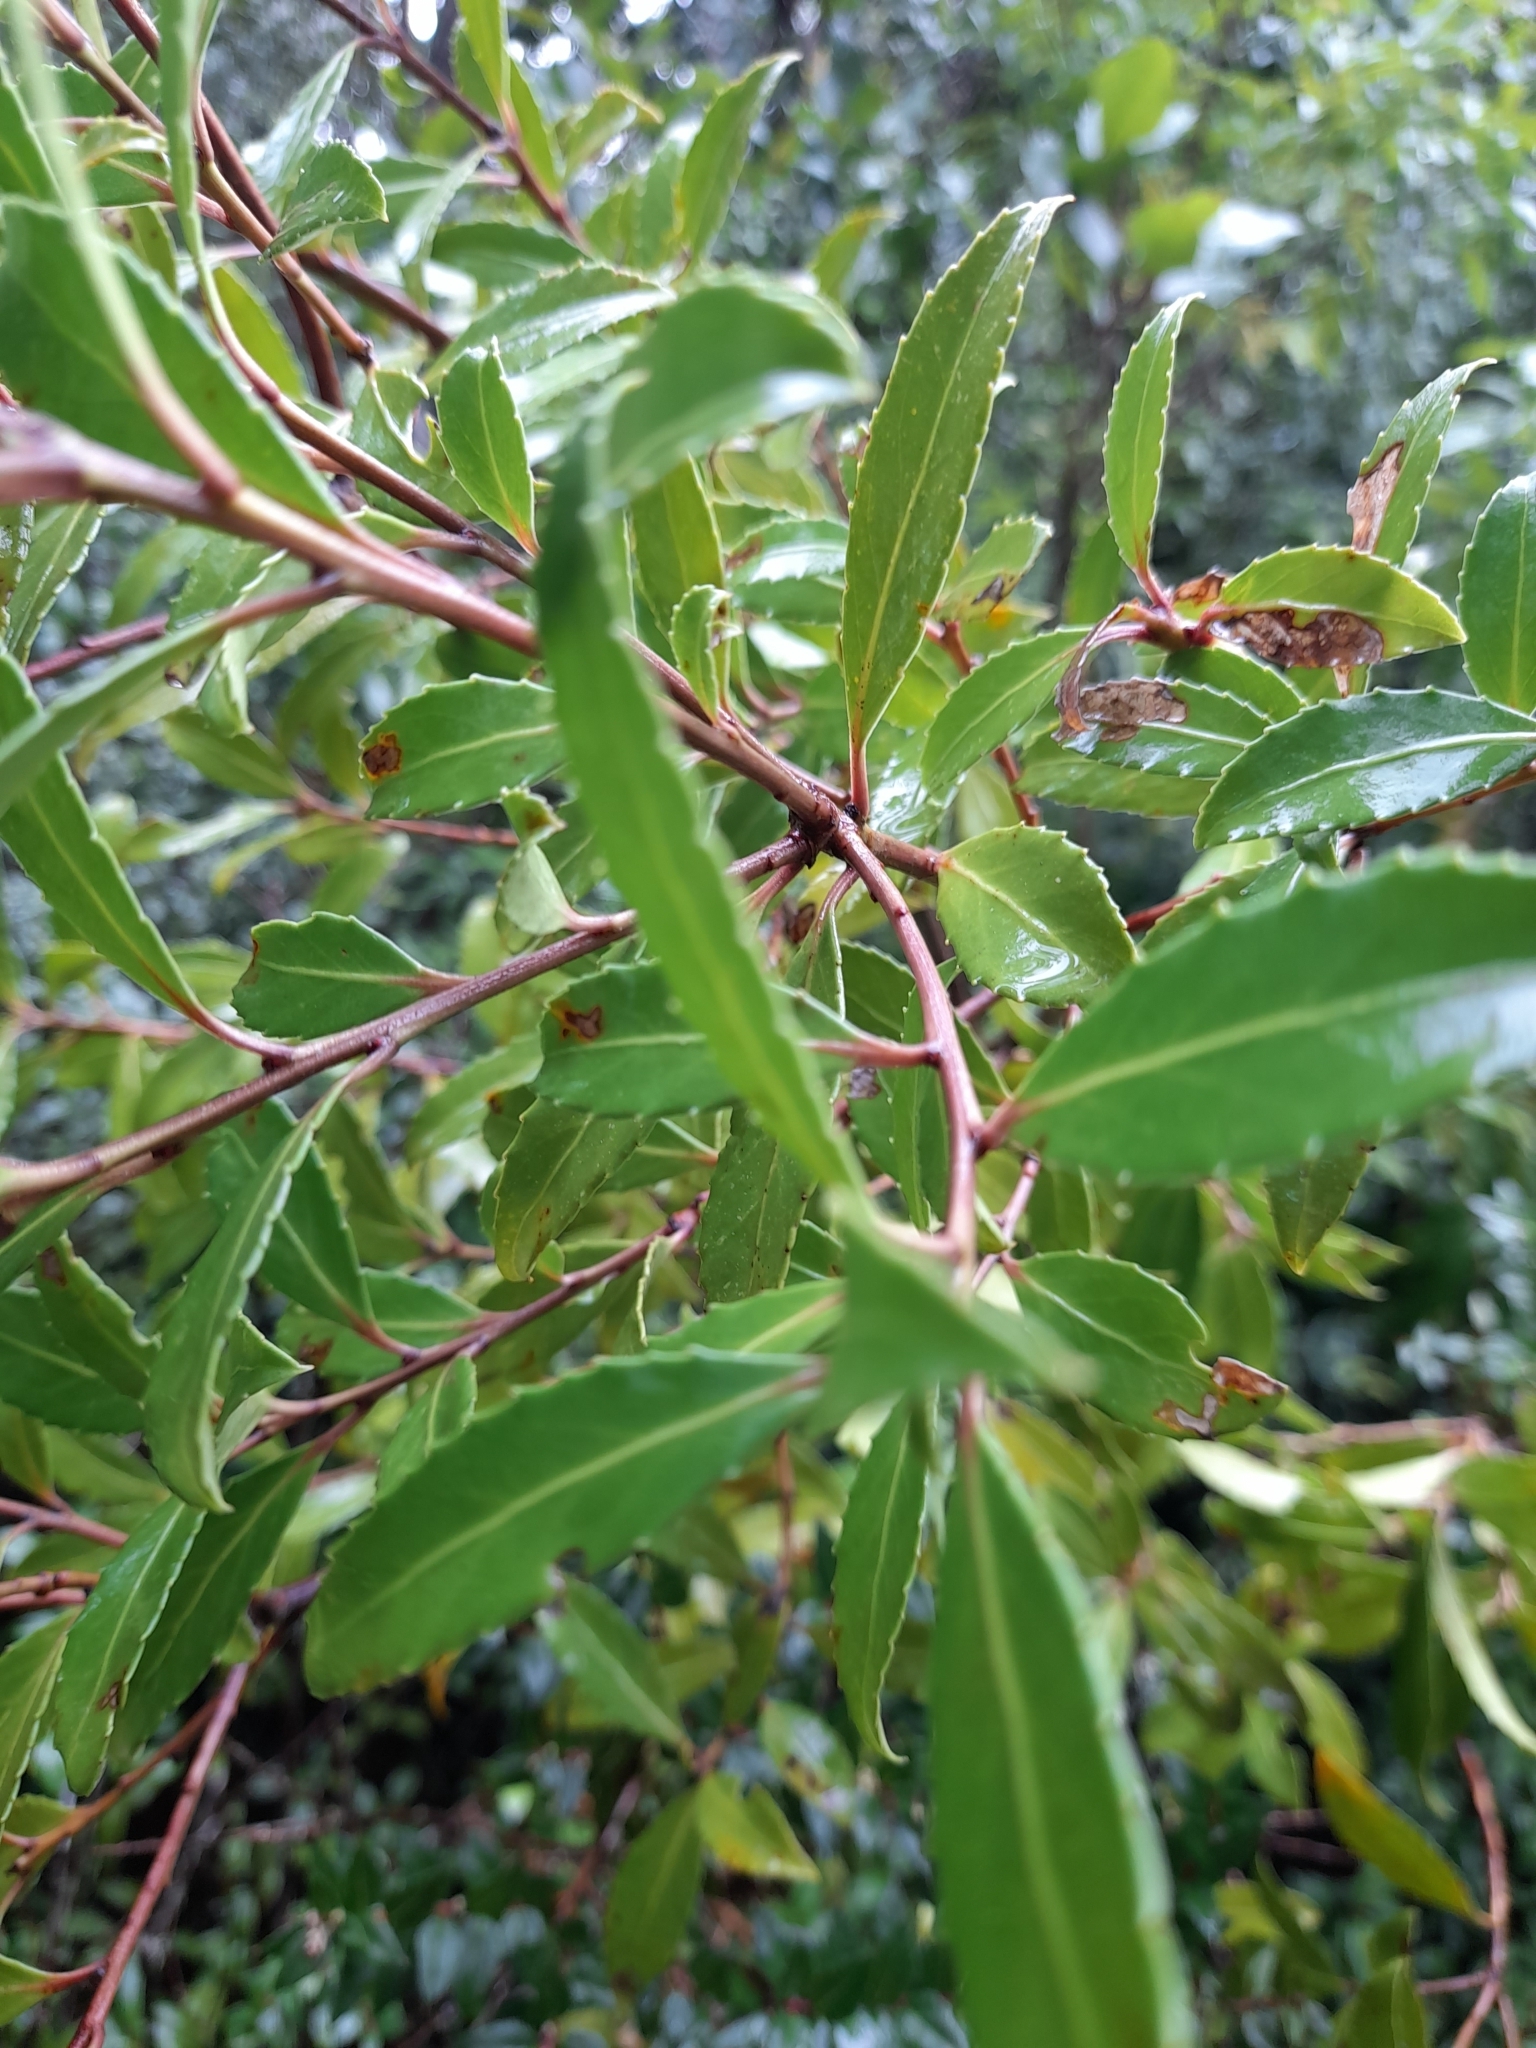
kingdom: Plantae
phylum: Tracheophyta
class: Magnoliopsida
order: Celastrales
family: Celastraceae
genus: Maytenus
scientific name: Maytenus magellanica
